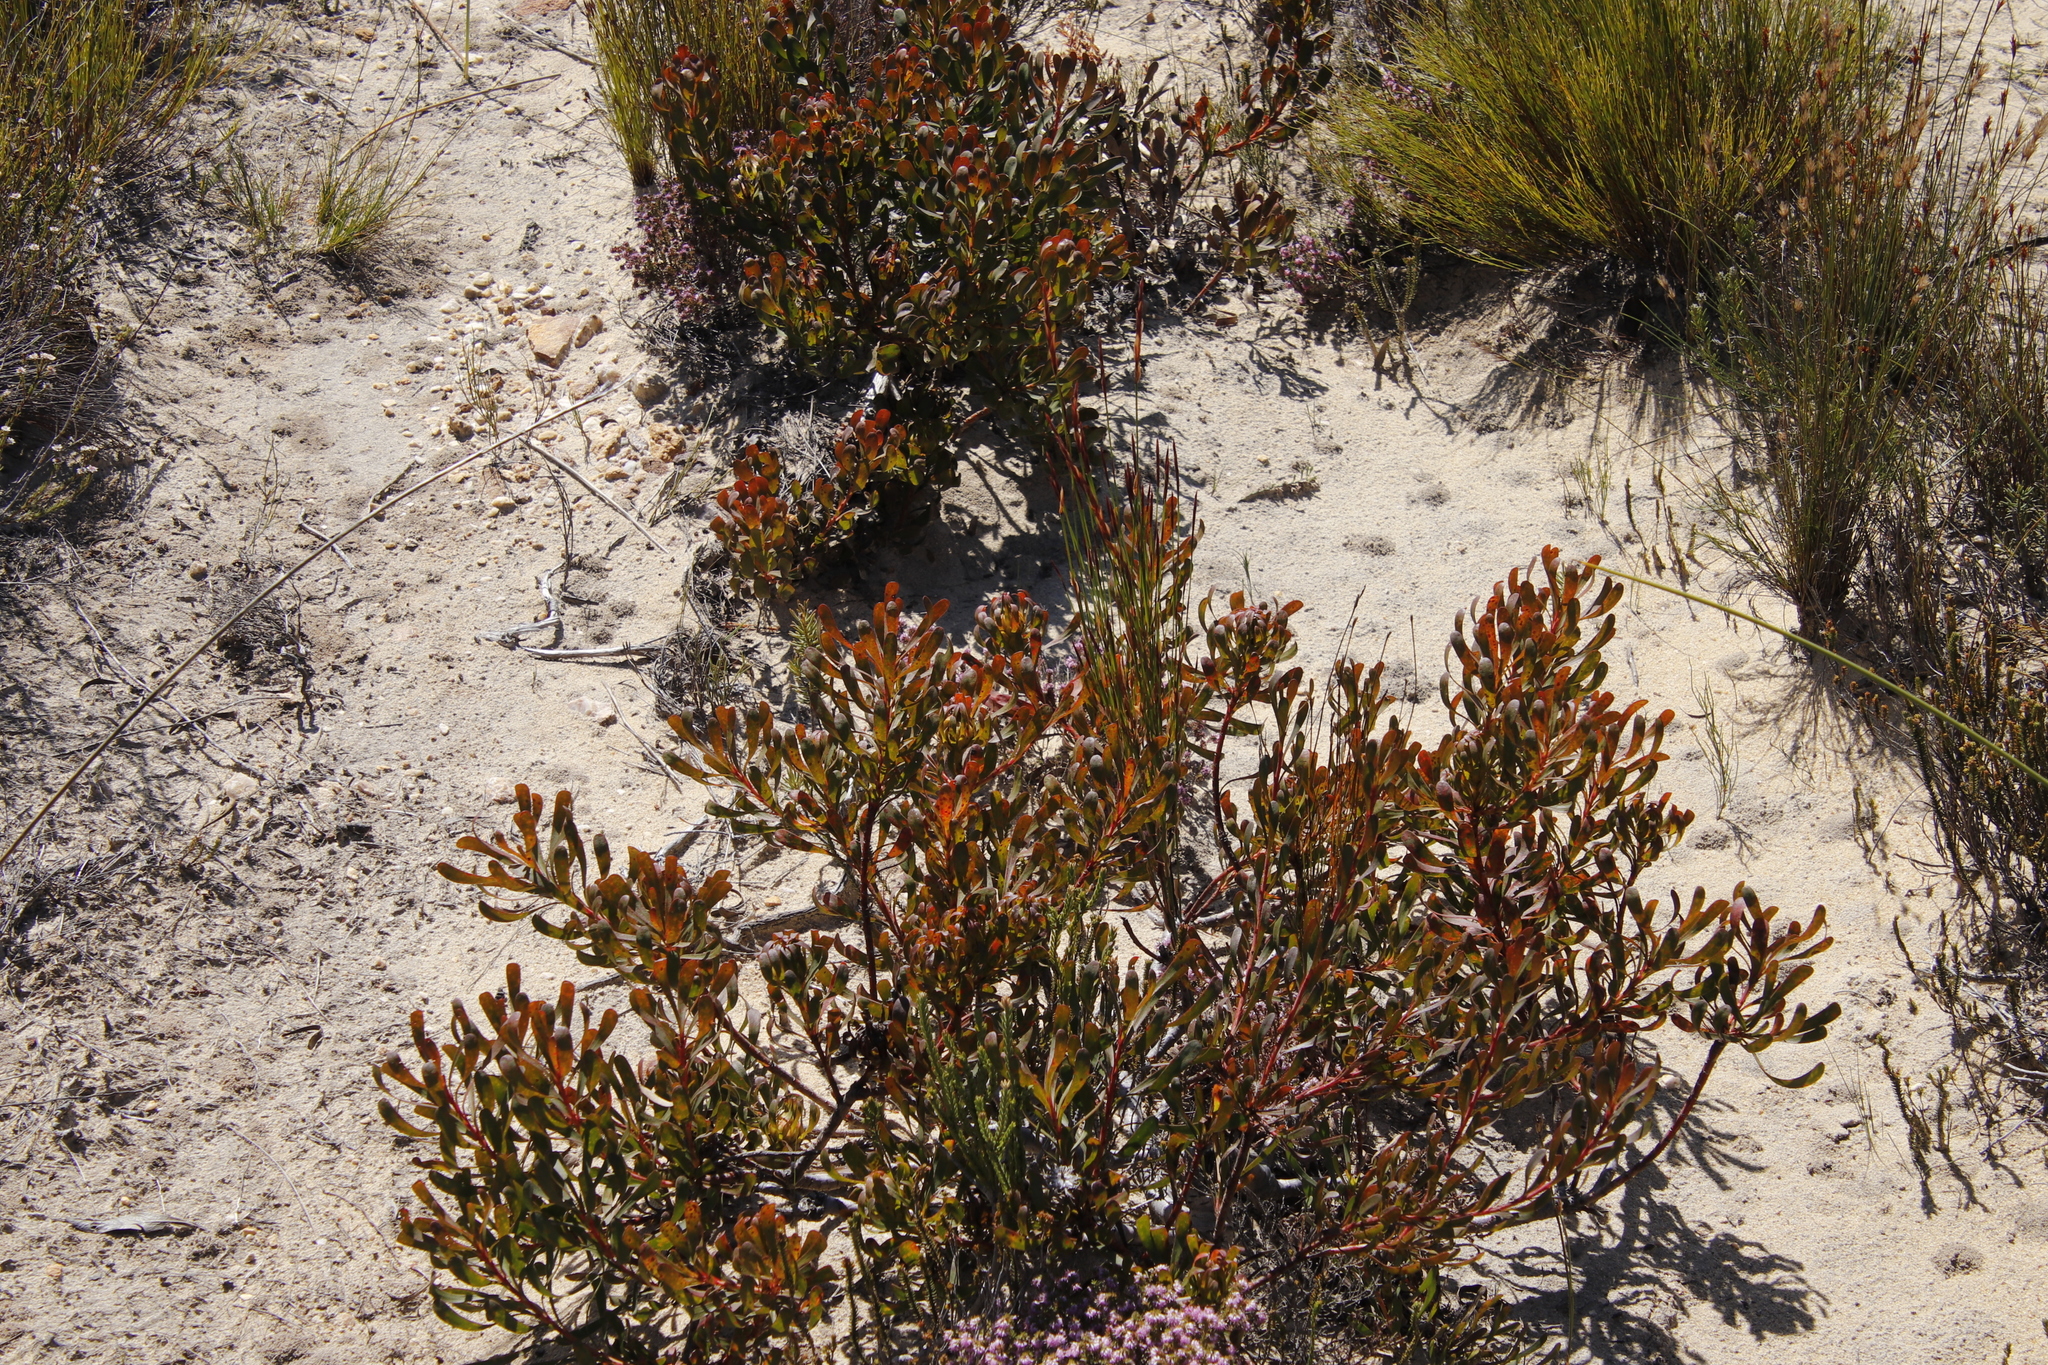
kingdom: Plantae
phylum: Tracheophyta
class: Magnoliopsida
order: Proteales
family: Proteaceae
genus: Aulax
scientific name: Aulax umbellata
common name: Broad-leaf featherbush
